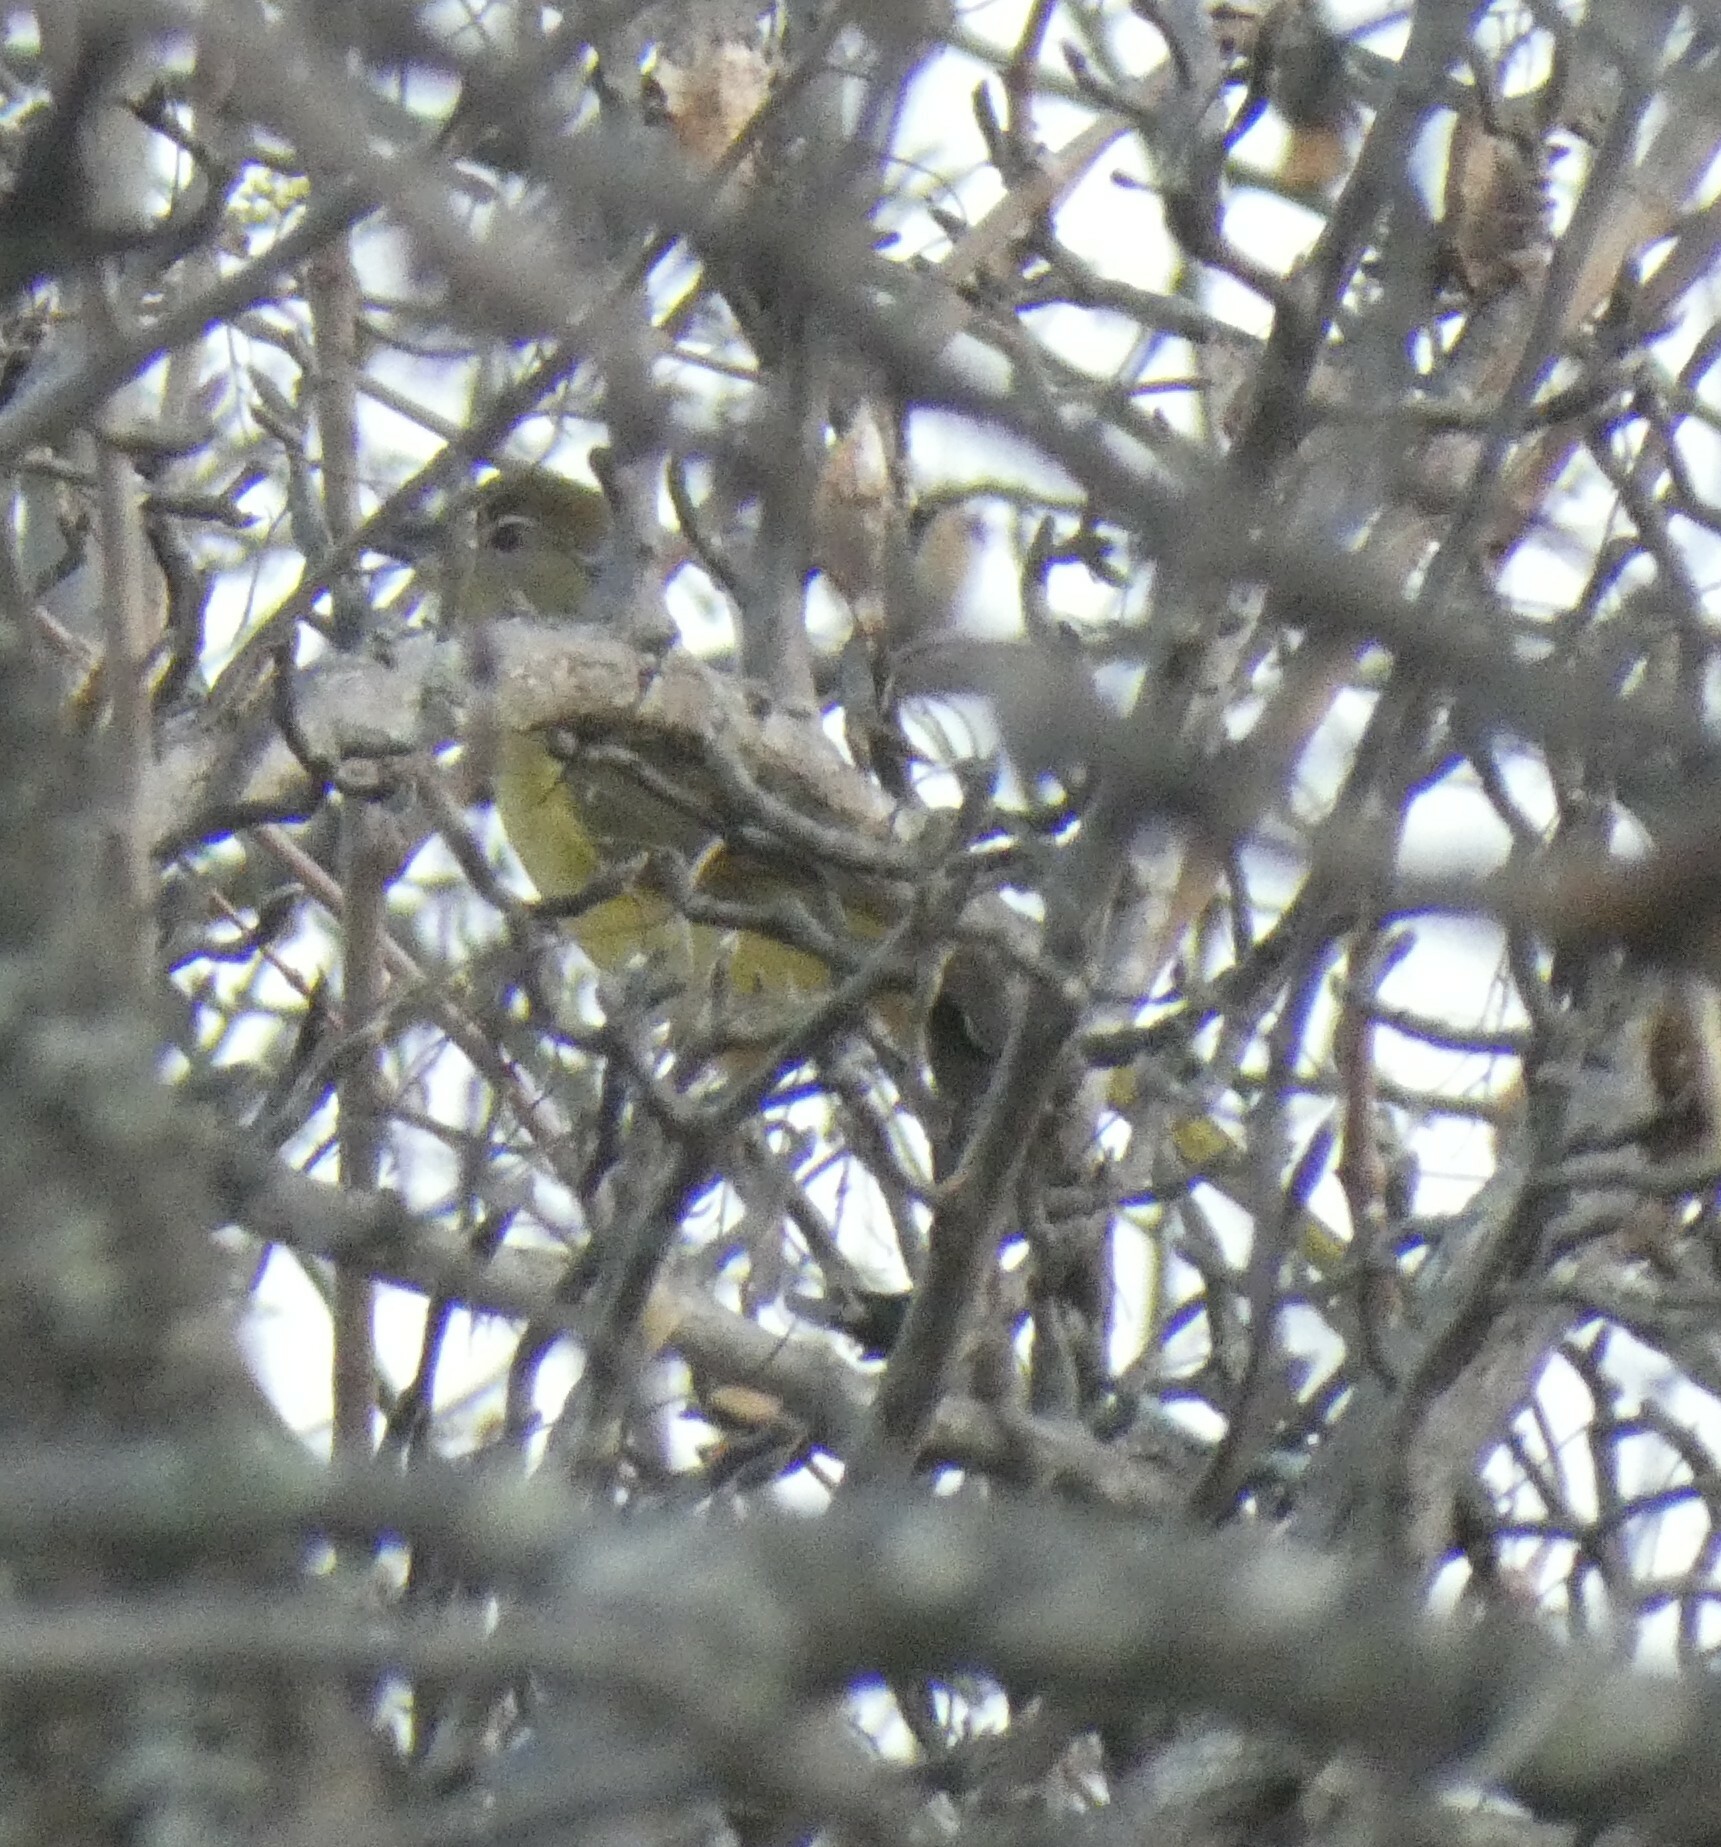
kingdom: Animalia
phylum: Chordata
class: Aves
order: Passeriformes
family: Pycnonotidae
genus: Chlorocichla
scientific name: Chlorocichla flaviventris
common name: Yellow-bellied greenbul
